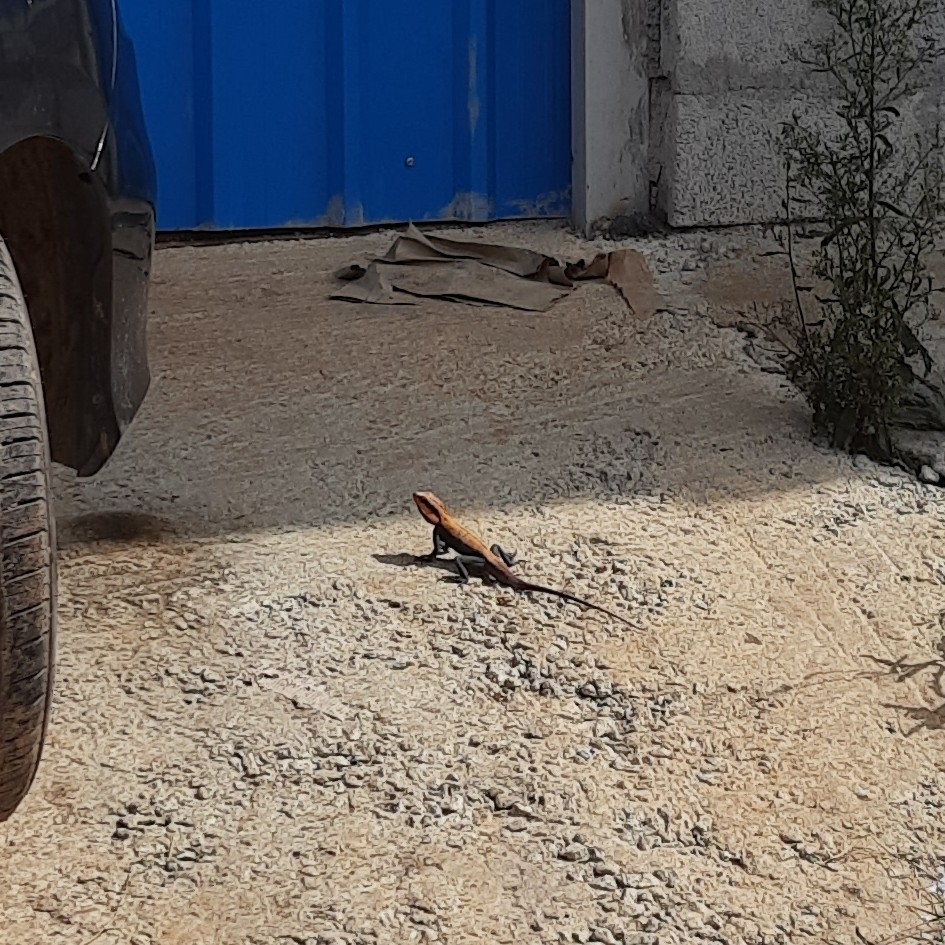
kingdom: Animalia
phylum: Chordata
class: Squamata
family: Agamidae
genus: Psammophilus
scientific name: Psammophilus dorsalis
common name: South indian rock agama
